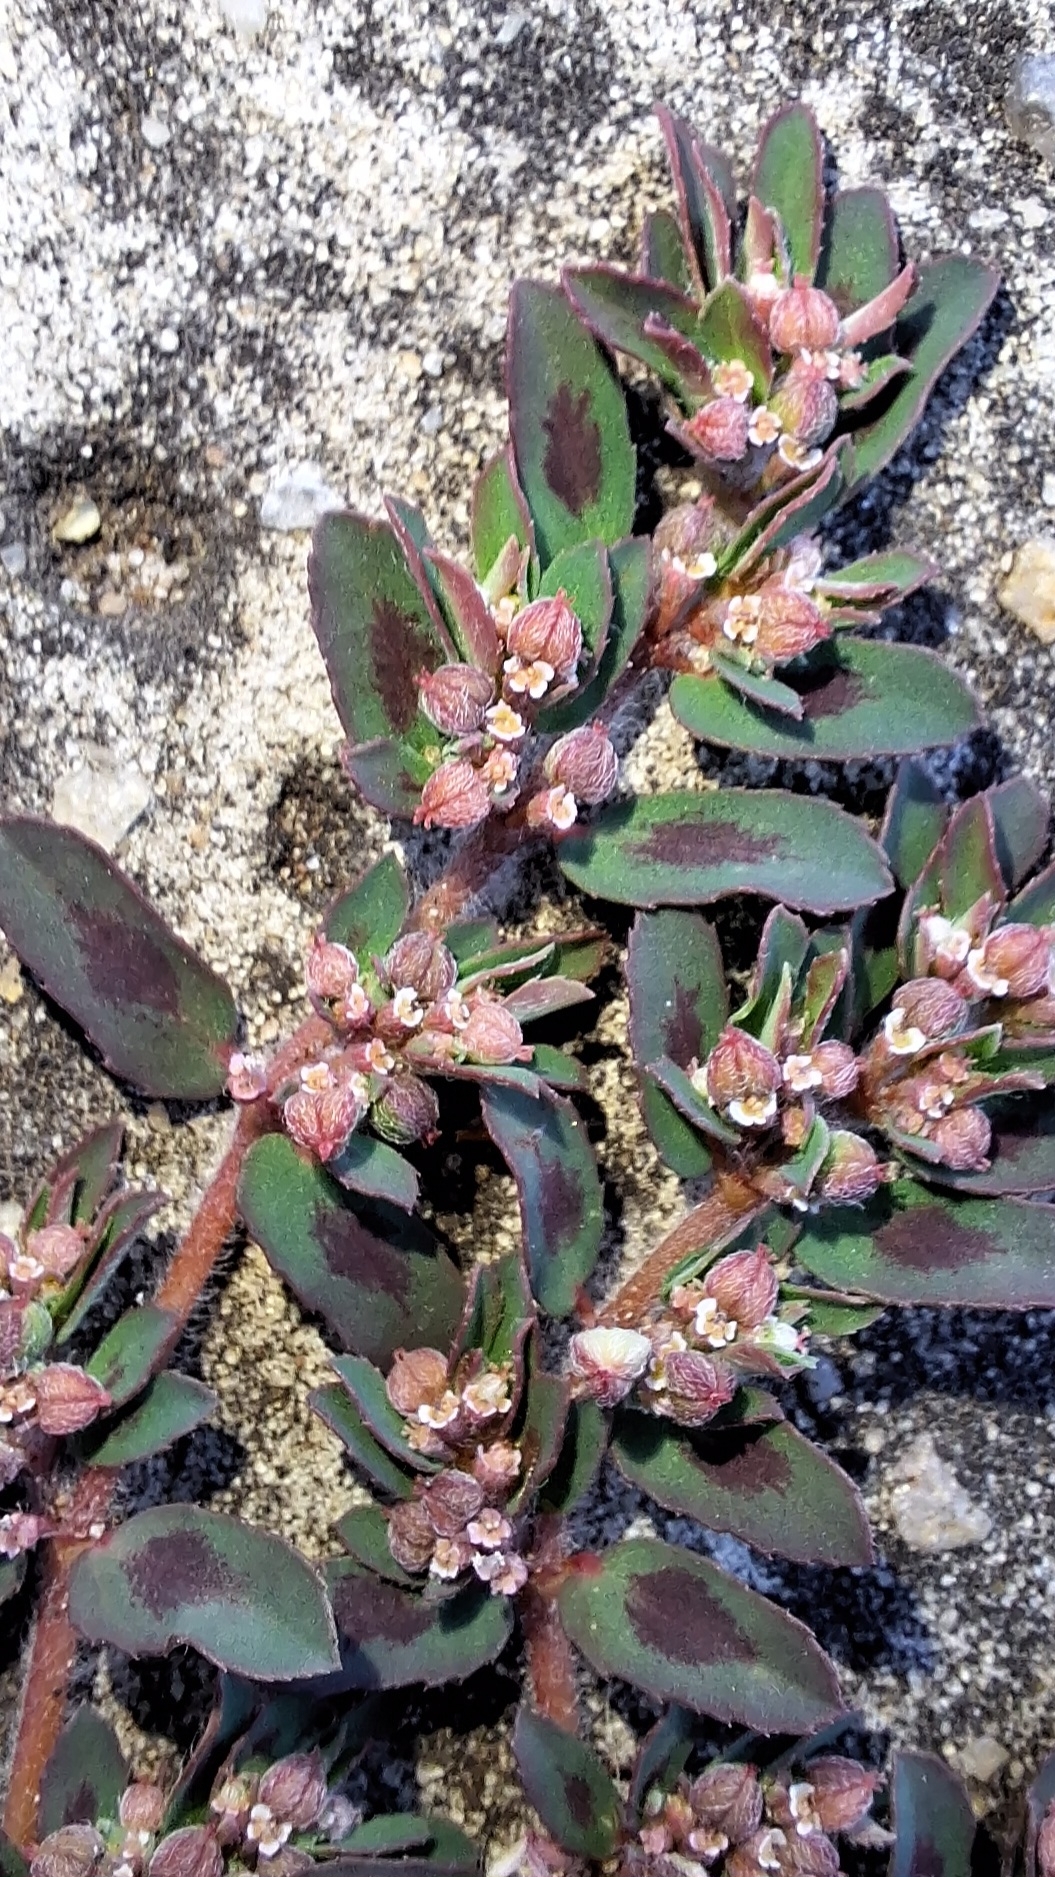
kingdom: Plantae
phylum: Tracheophyta
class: Magnoliopsida
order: Malpighiales
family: Euphorbiaceae
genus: Euphorbia
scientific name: Euphorbia maculata
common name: Spotted spurge
